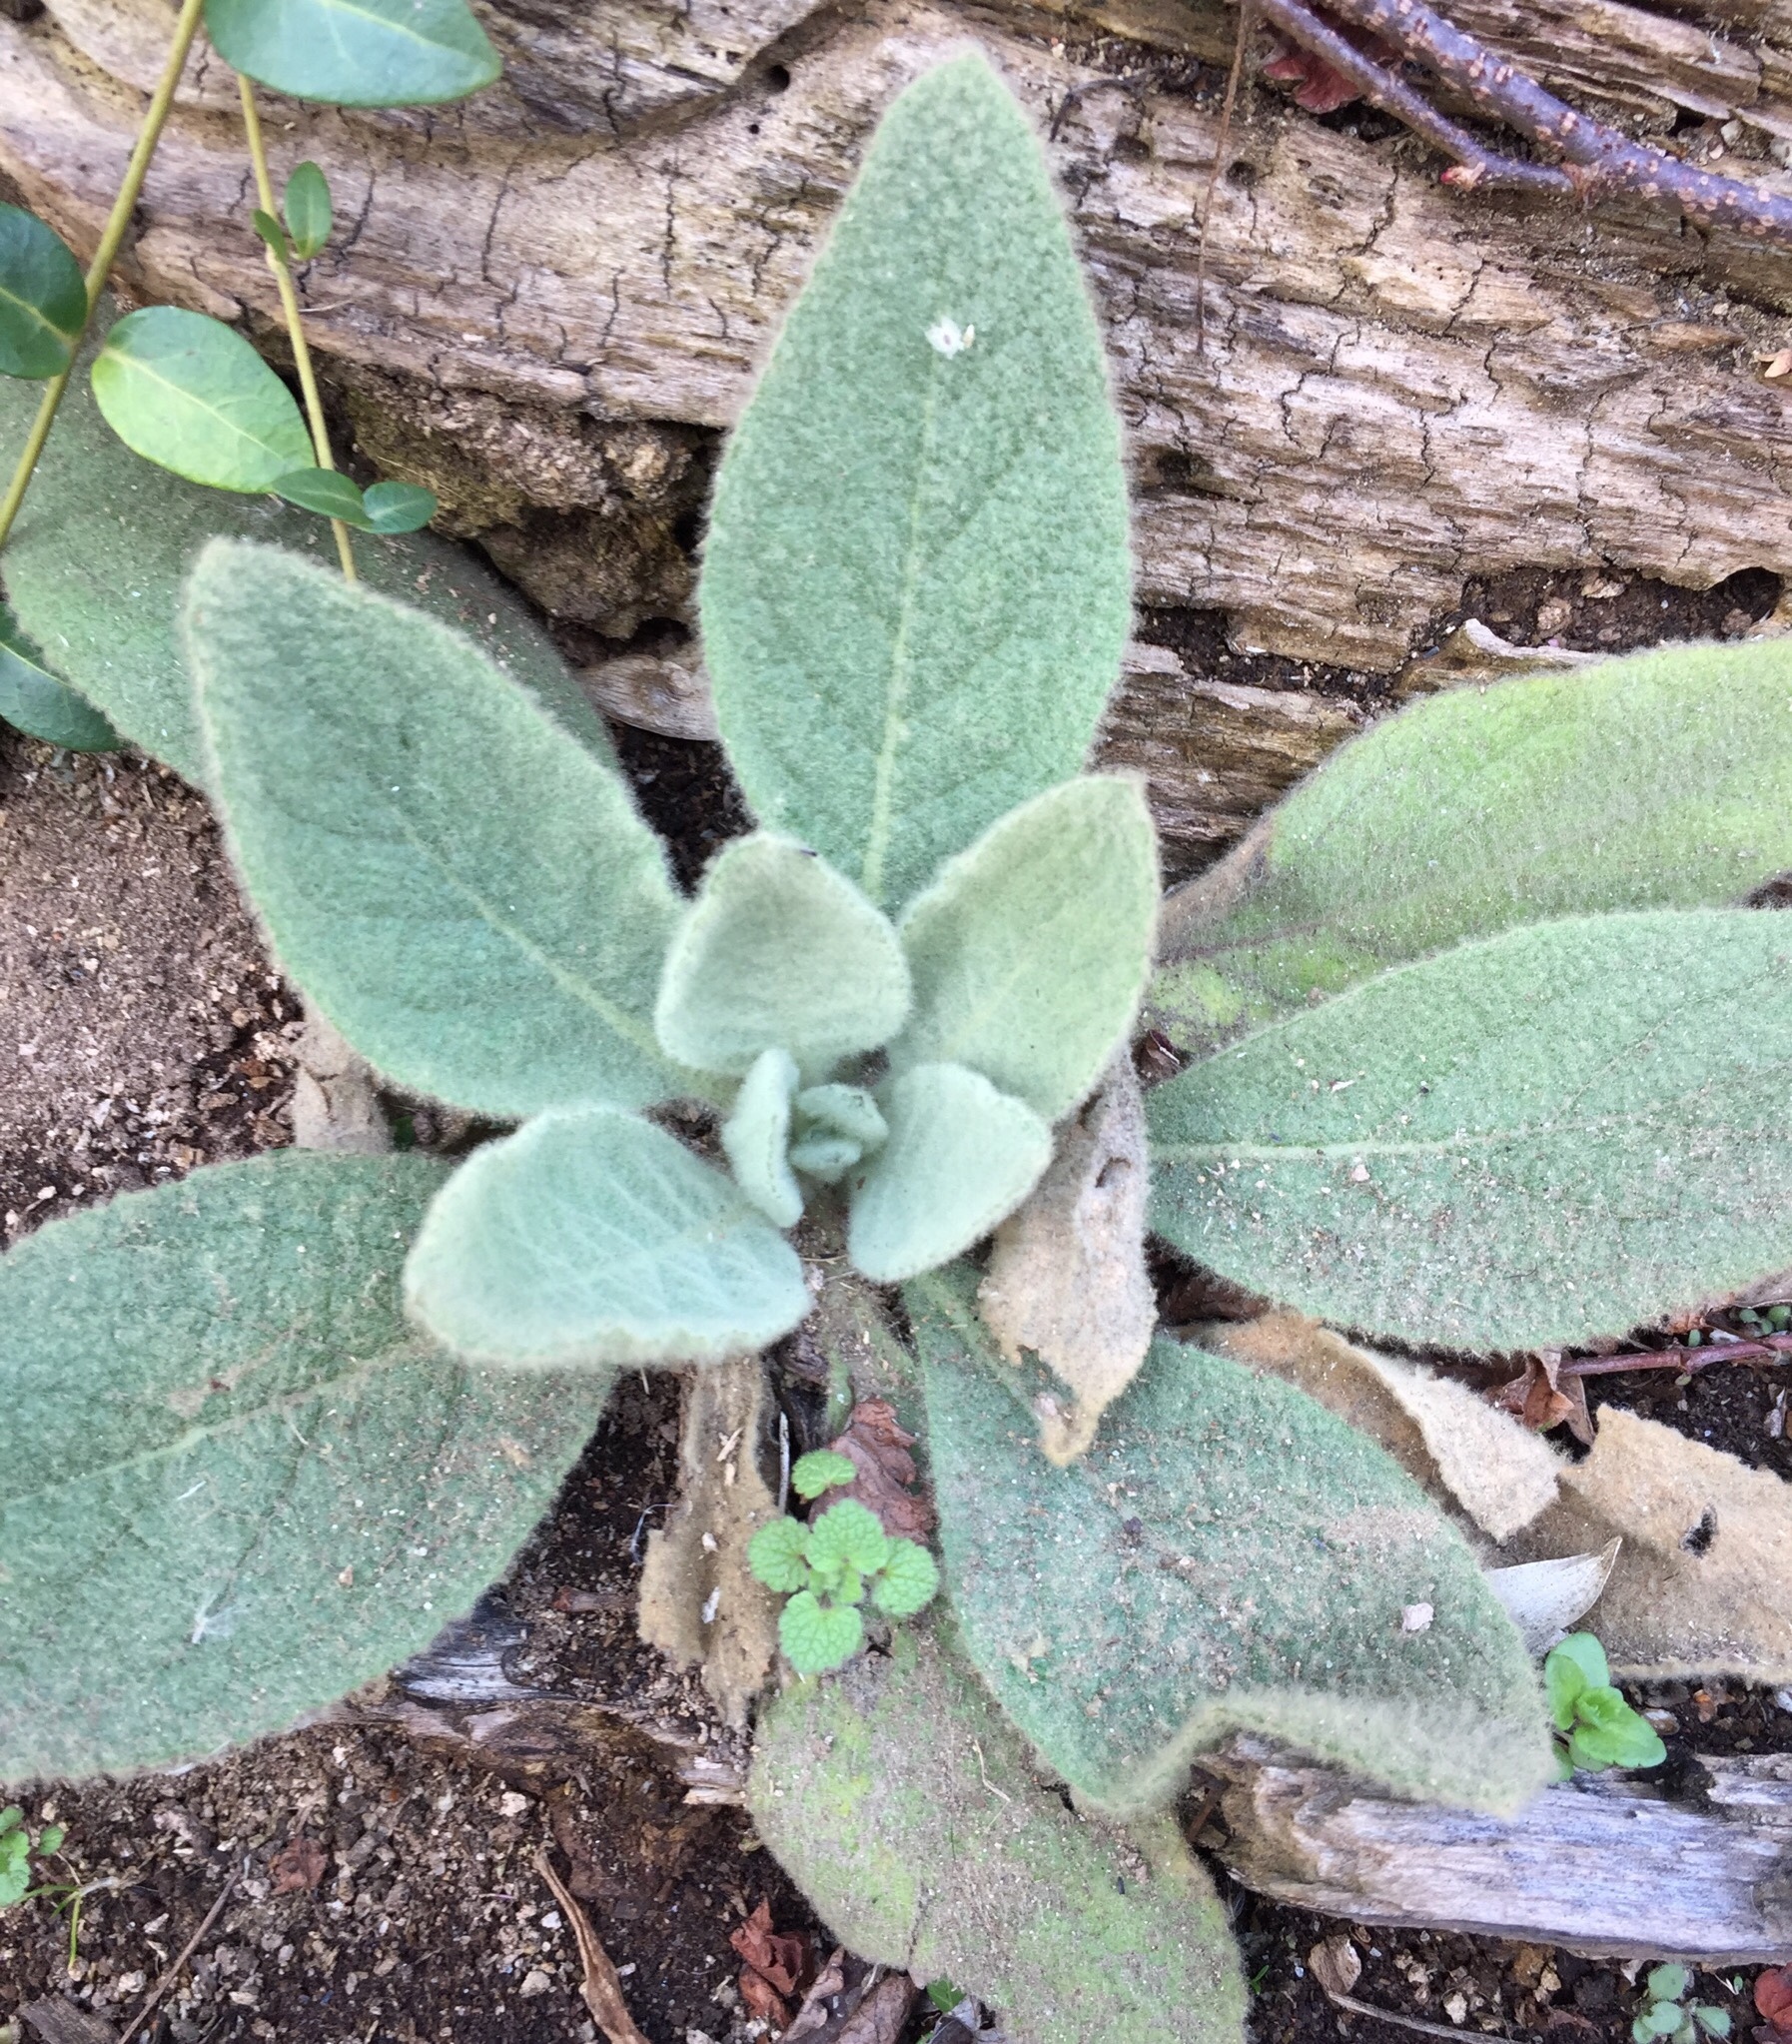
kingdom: Plantae
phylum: Tracheophyta
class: Magnoliopsida
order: Lamiales
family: Scrophulariaceae
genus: Verbascum
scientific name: Verbascum thapsus
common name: Common mullein
